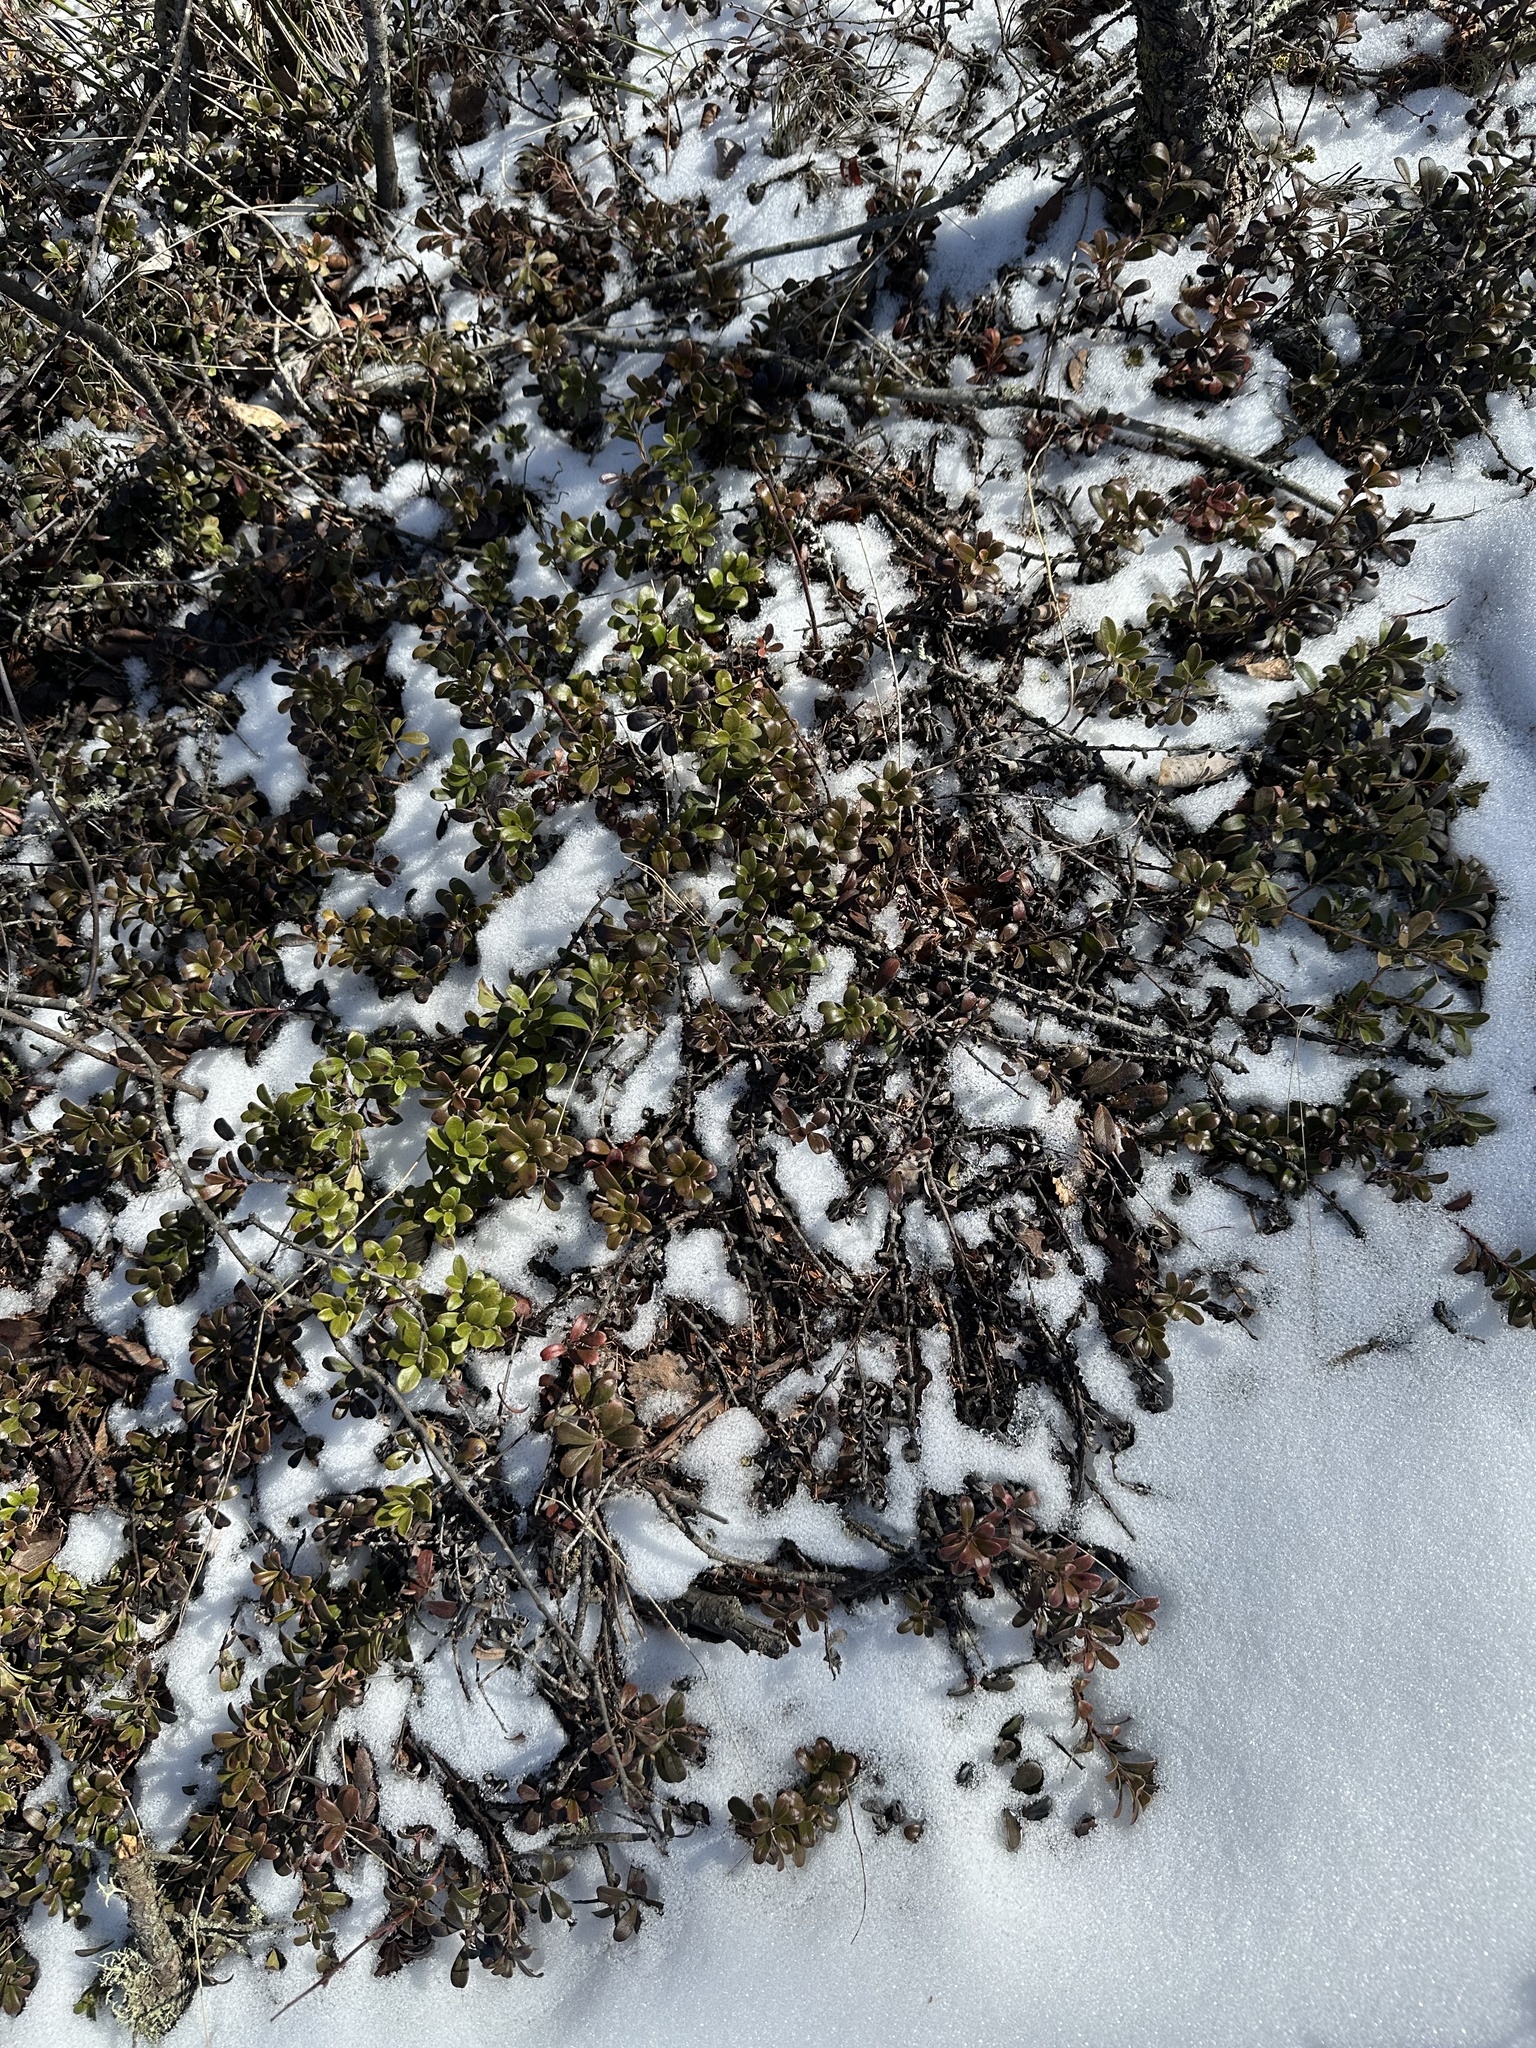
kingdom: Plantae
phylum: Tracheophyta
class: Magnoliopsida
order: Ericales
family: Ericaceae
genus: Arctostaphylos
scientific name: Arctostaphylos uva-ursi
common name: Bearberry
